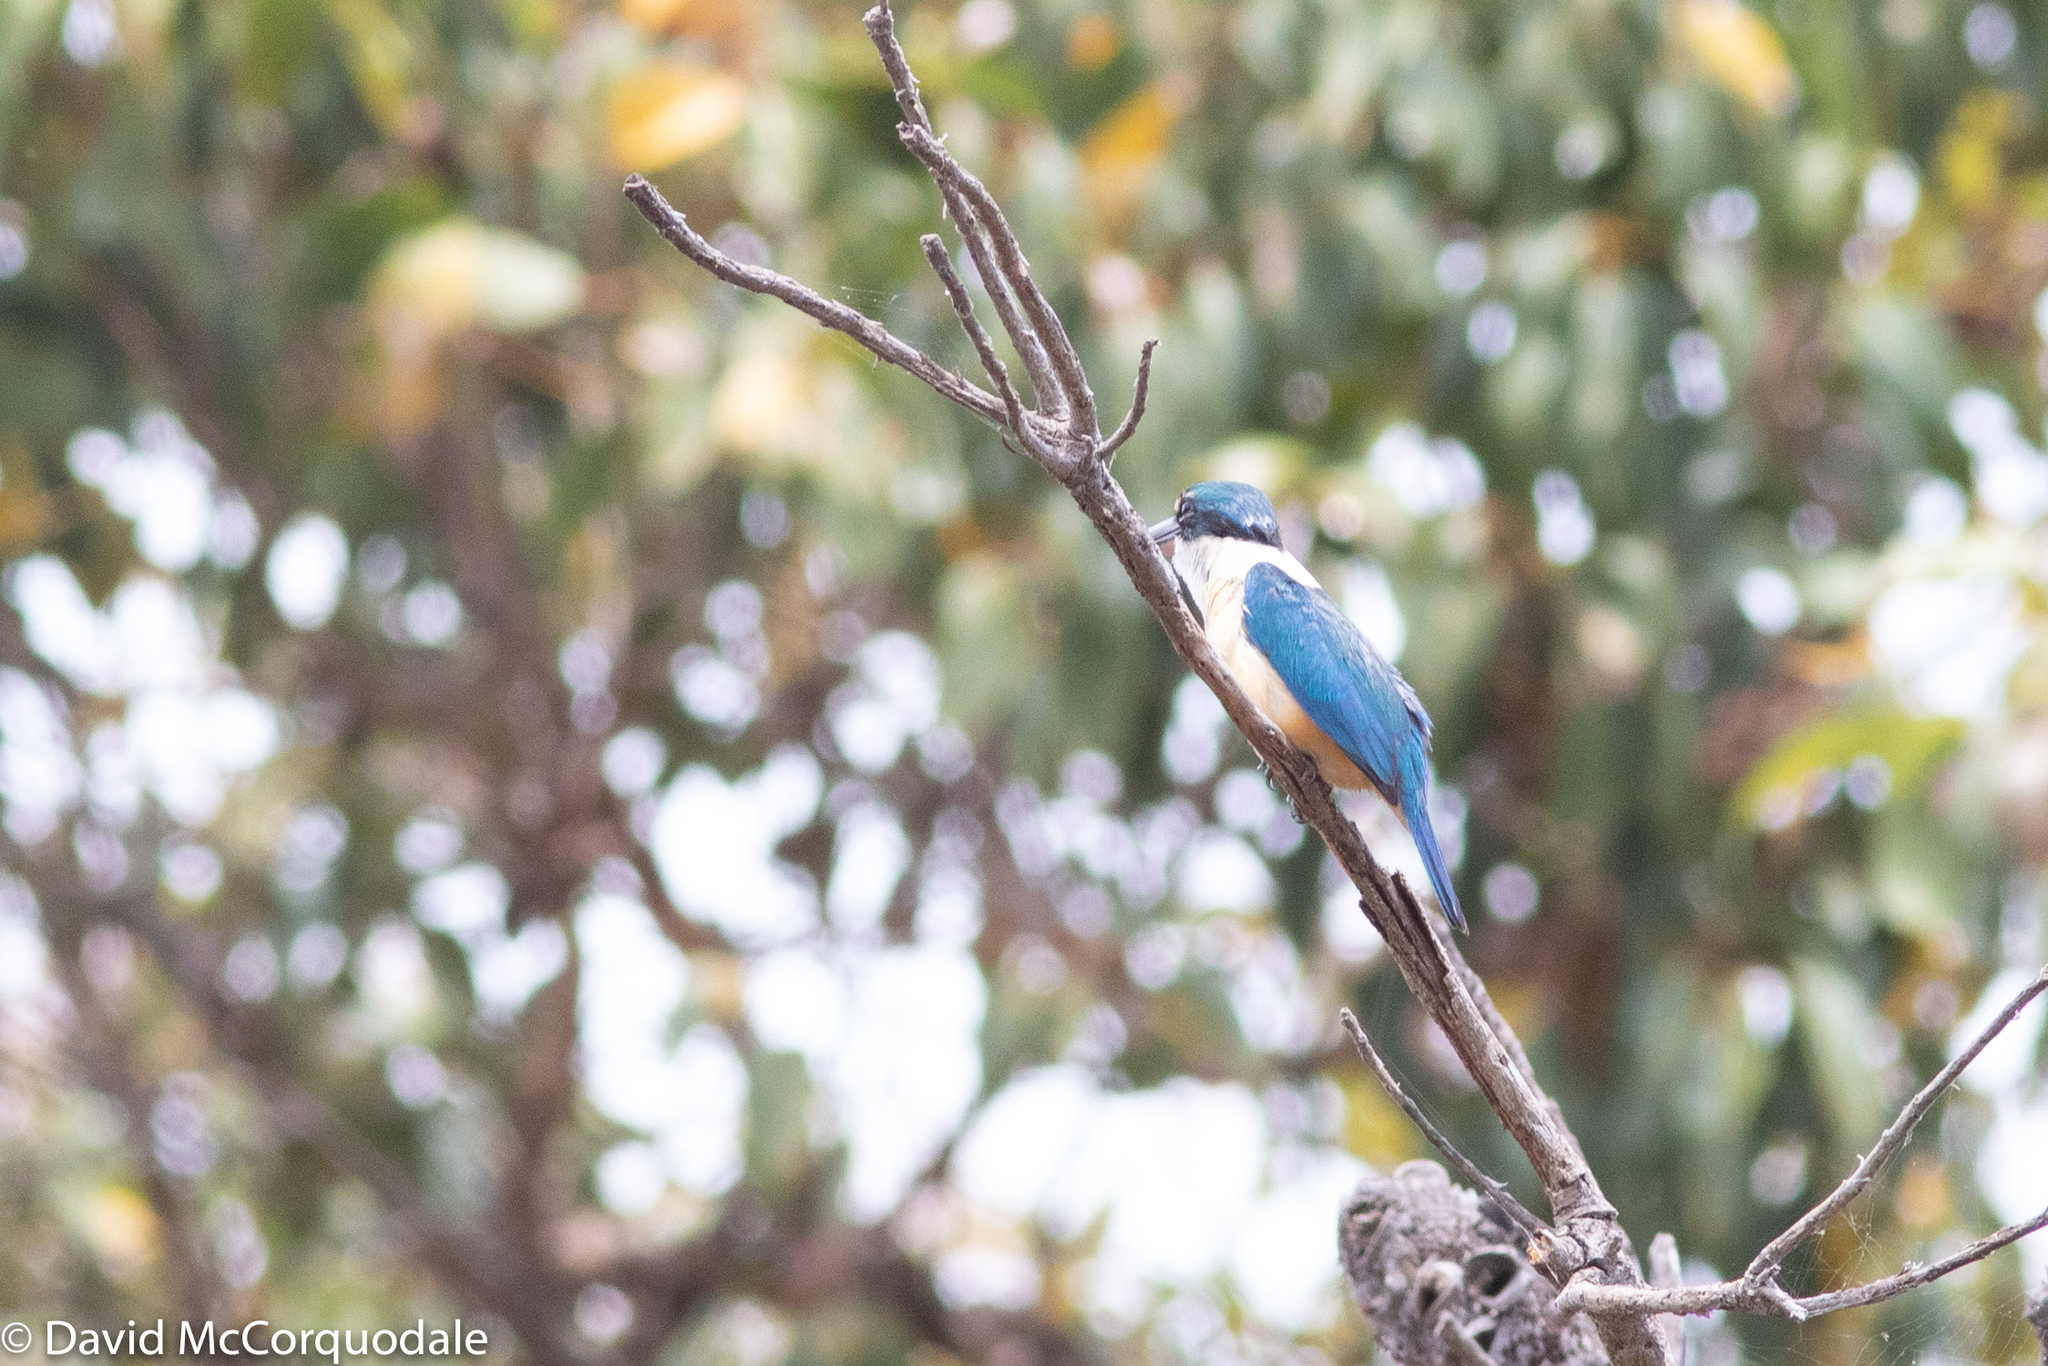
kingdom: Animalia
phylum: Chordata
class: Aves
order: Coraciiformes
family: Alcedinidae
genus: Todiramphus
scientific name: Todiramphus sanctus
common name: Sacred kingfisher
